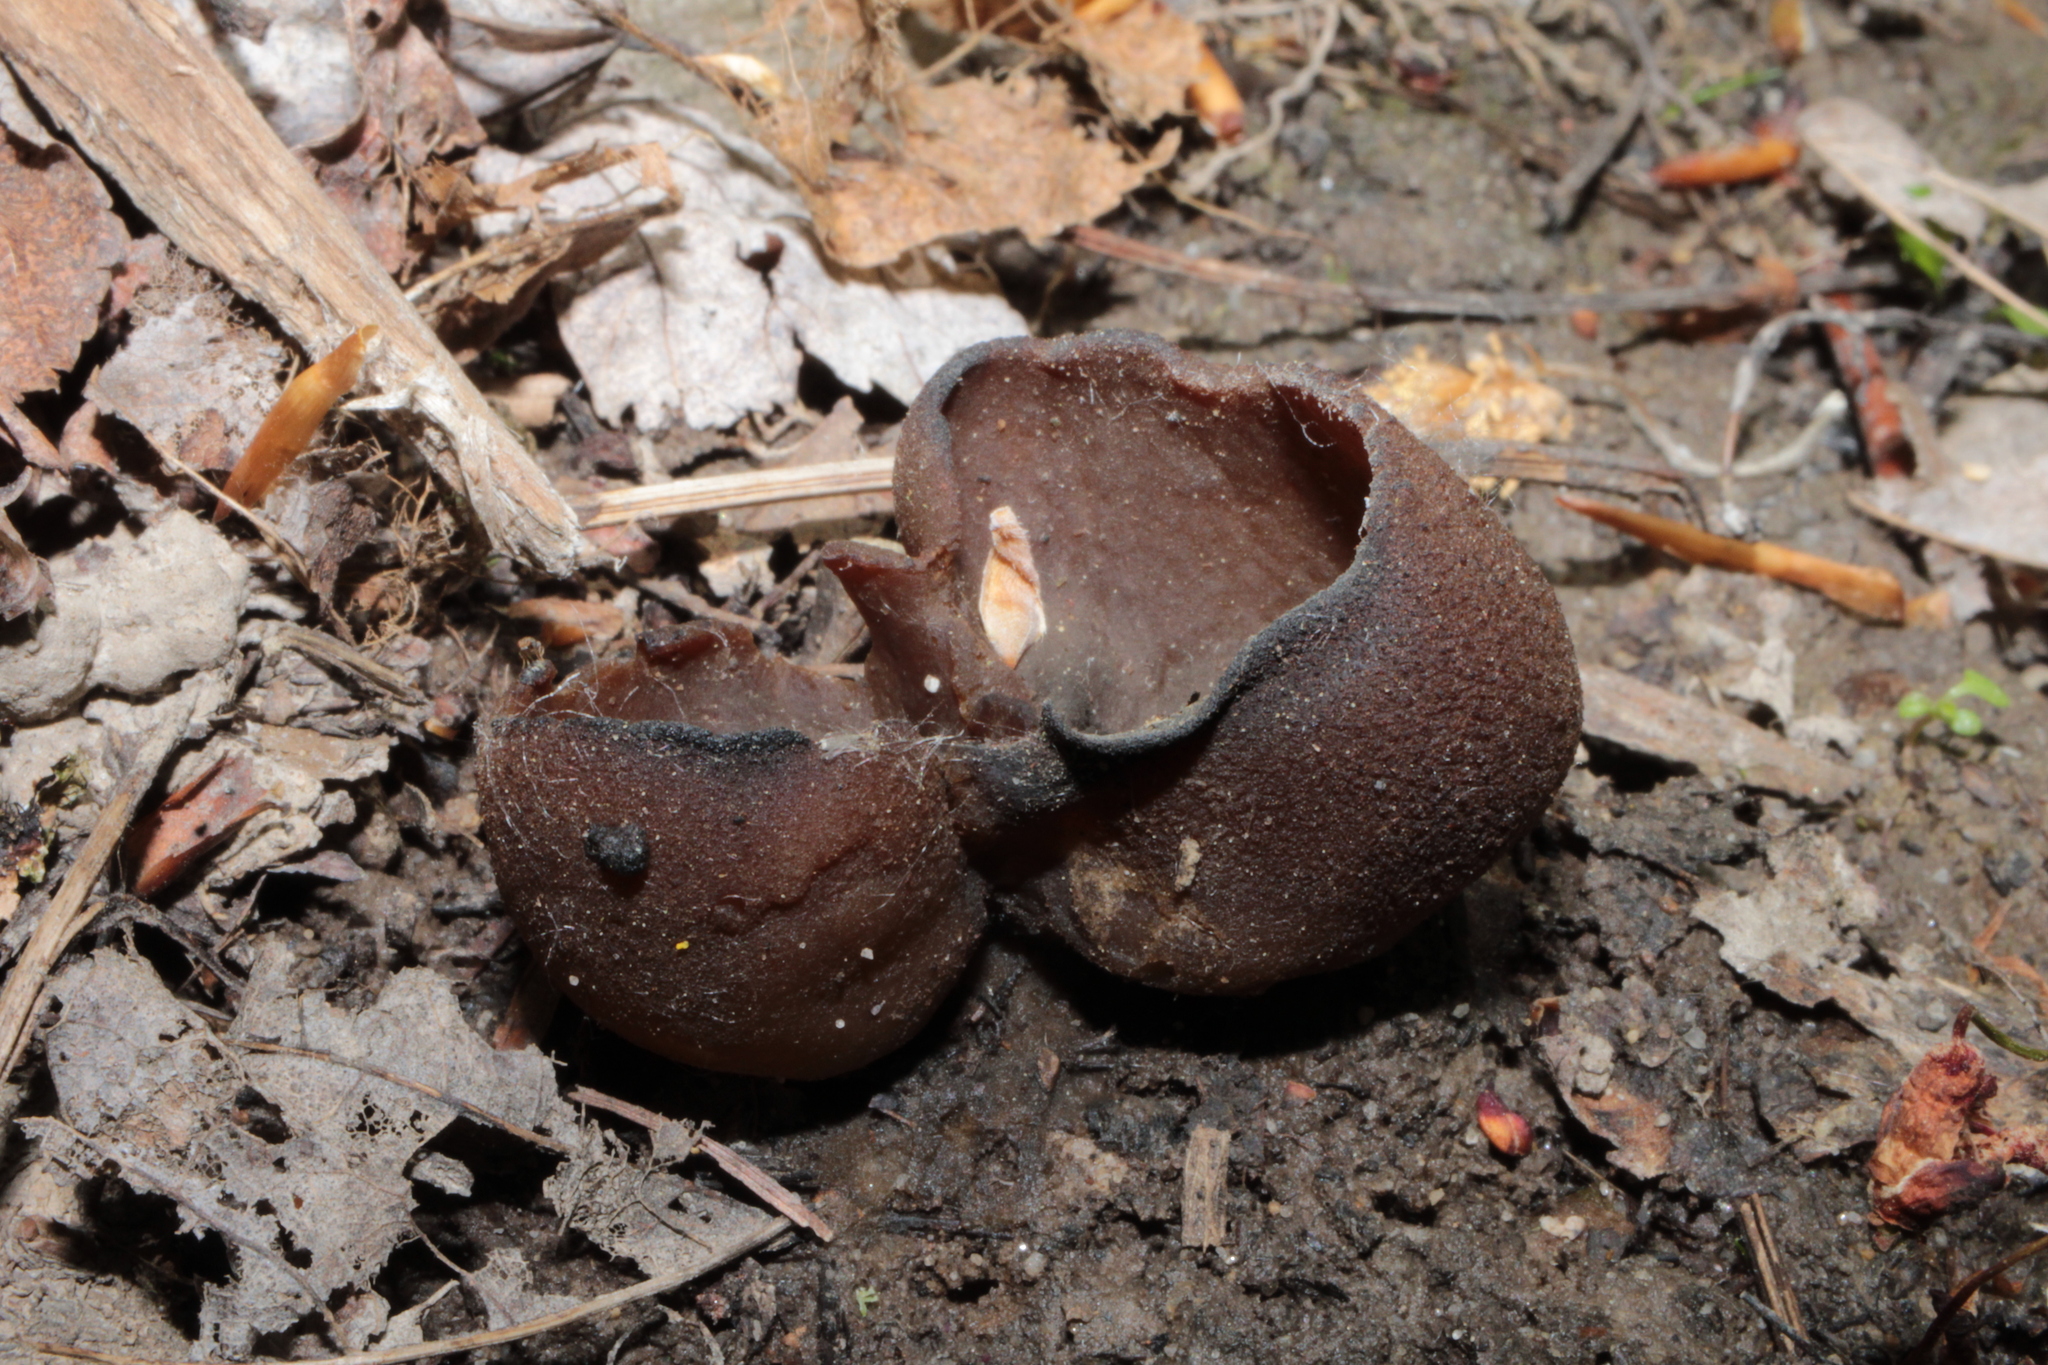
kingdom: Fungi
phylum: Ascomycota
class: Pezizomycetes
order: Pezizales
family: Pezizaceae
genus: Phylloscypha
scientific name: Phylloscypha phyllogena
